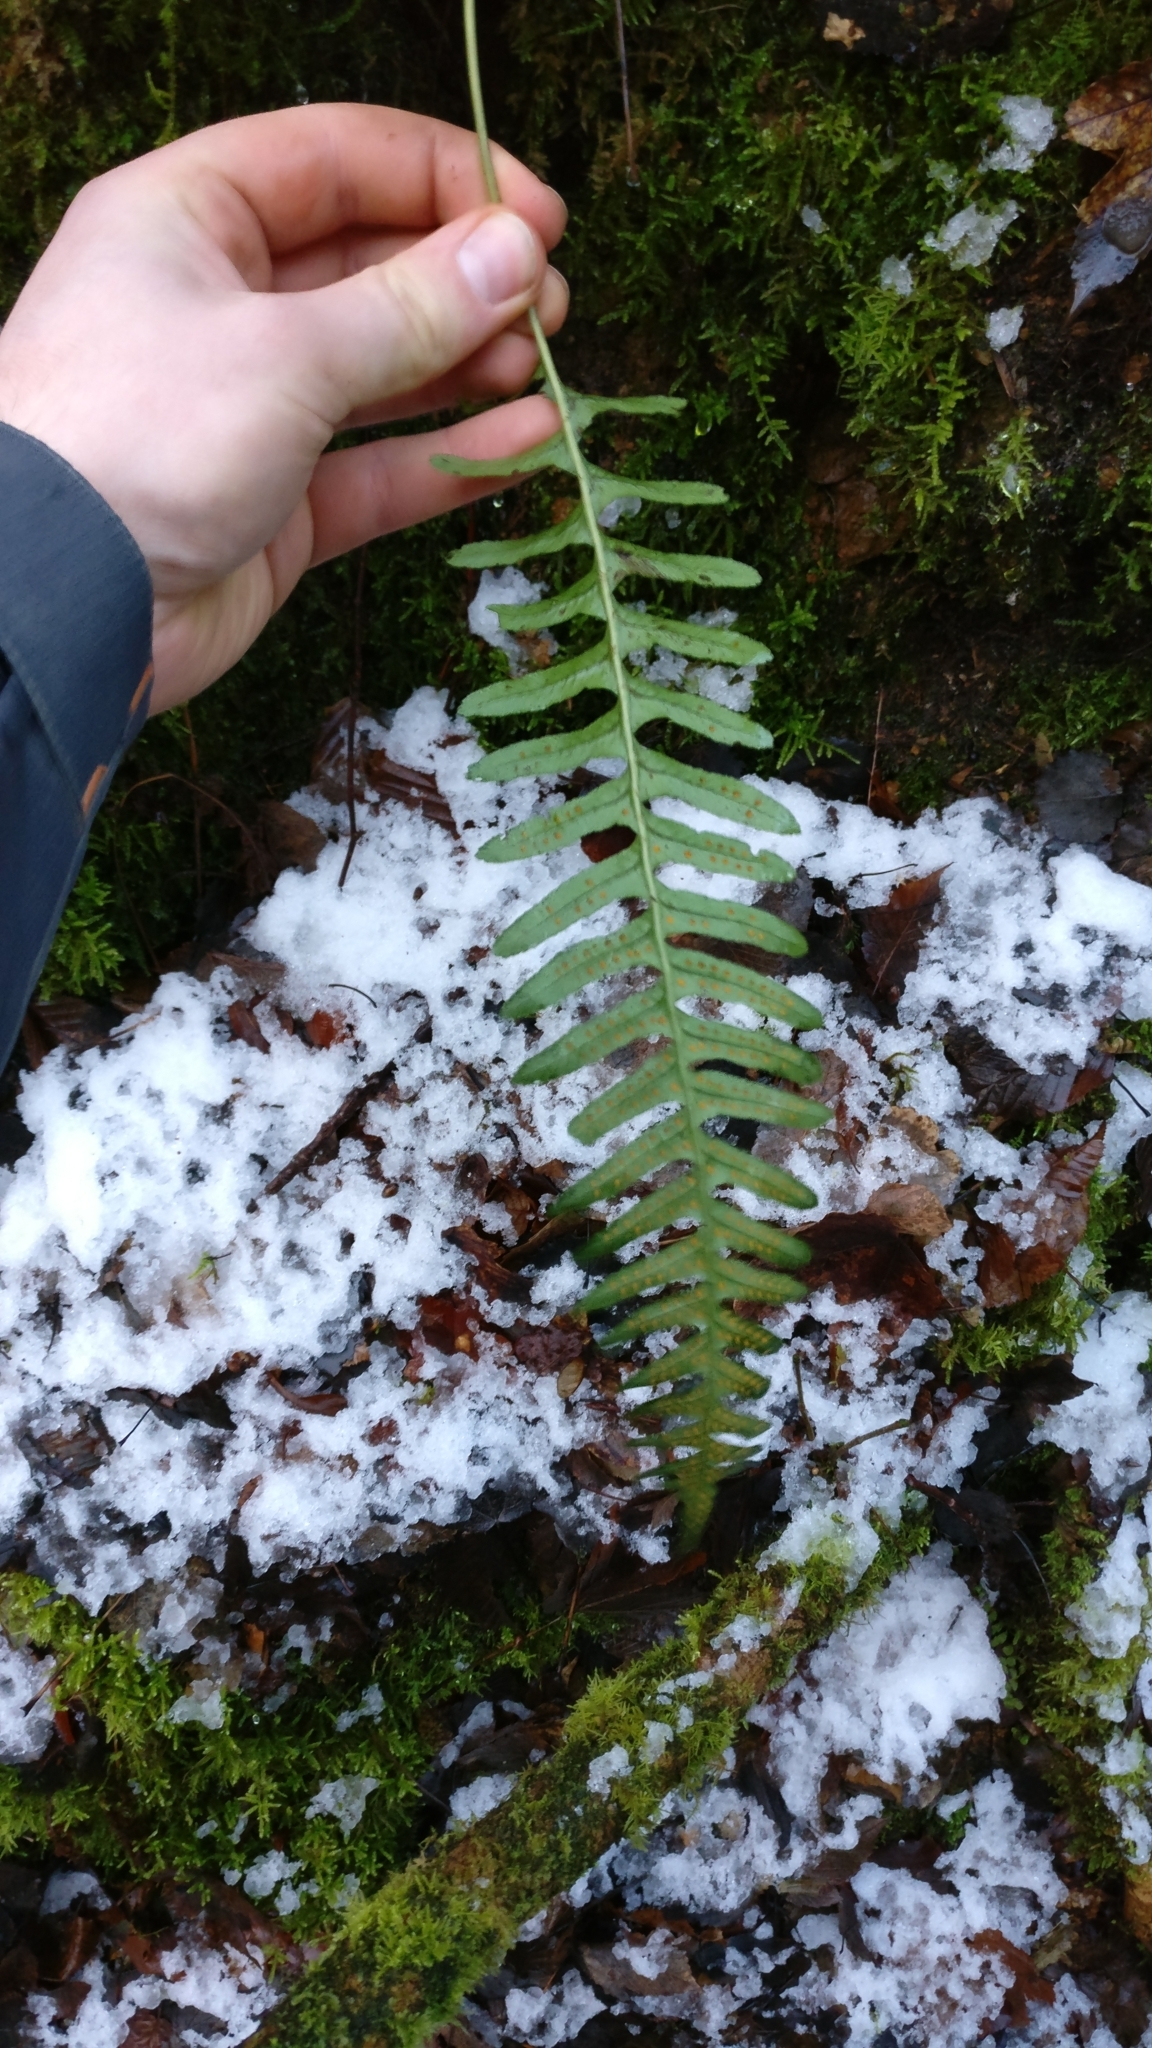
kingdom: Plantae
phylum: Tracheophyta
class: Polypodiopsida
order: Polypodiales
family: Polypodiaceae
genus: Polypodium
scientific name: Polypodium
